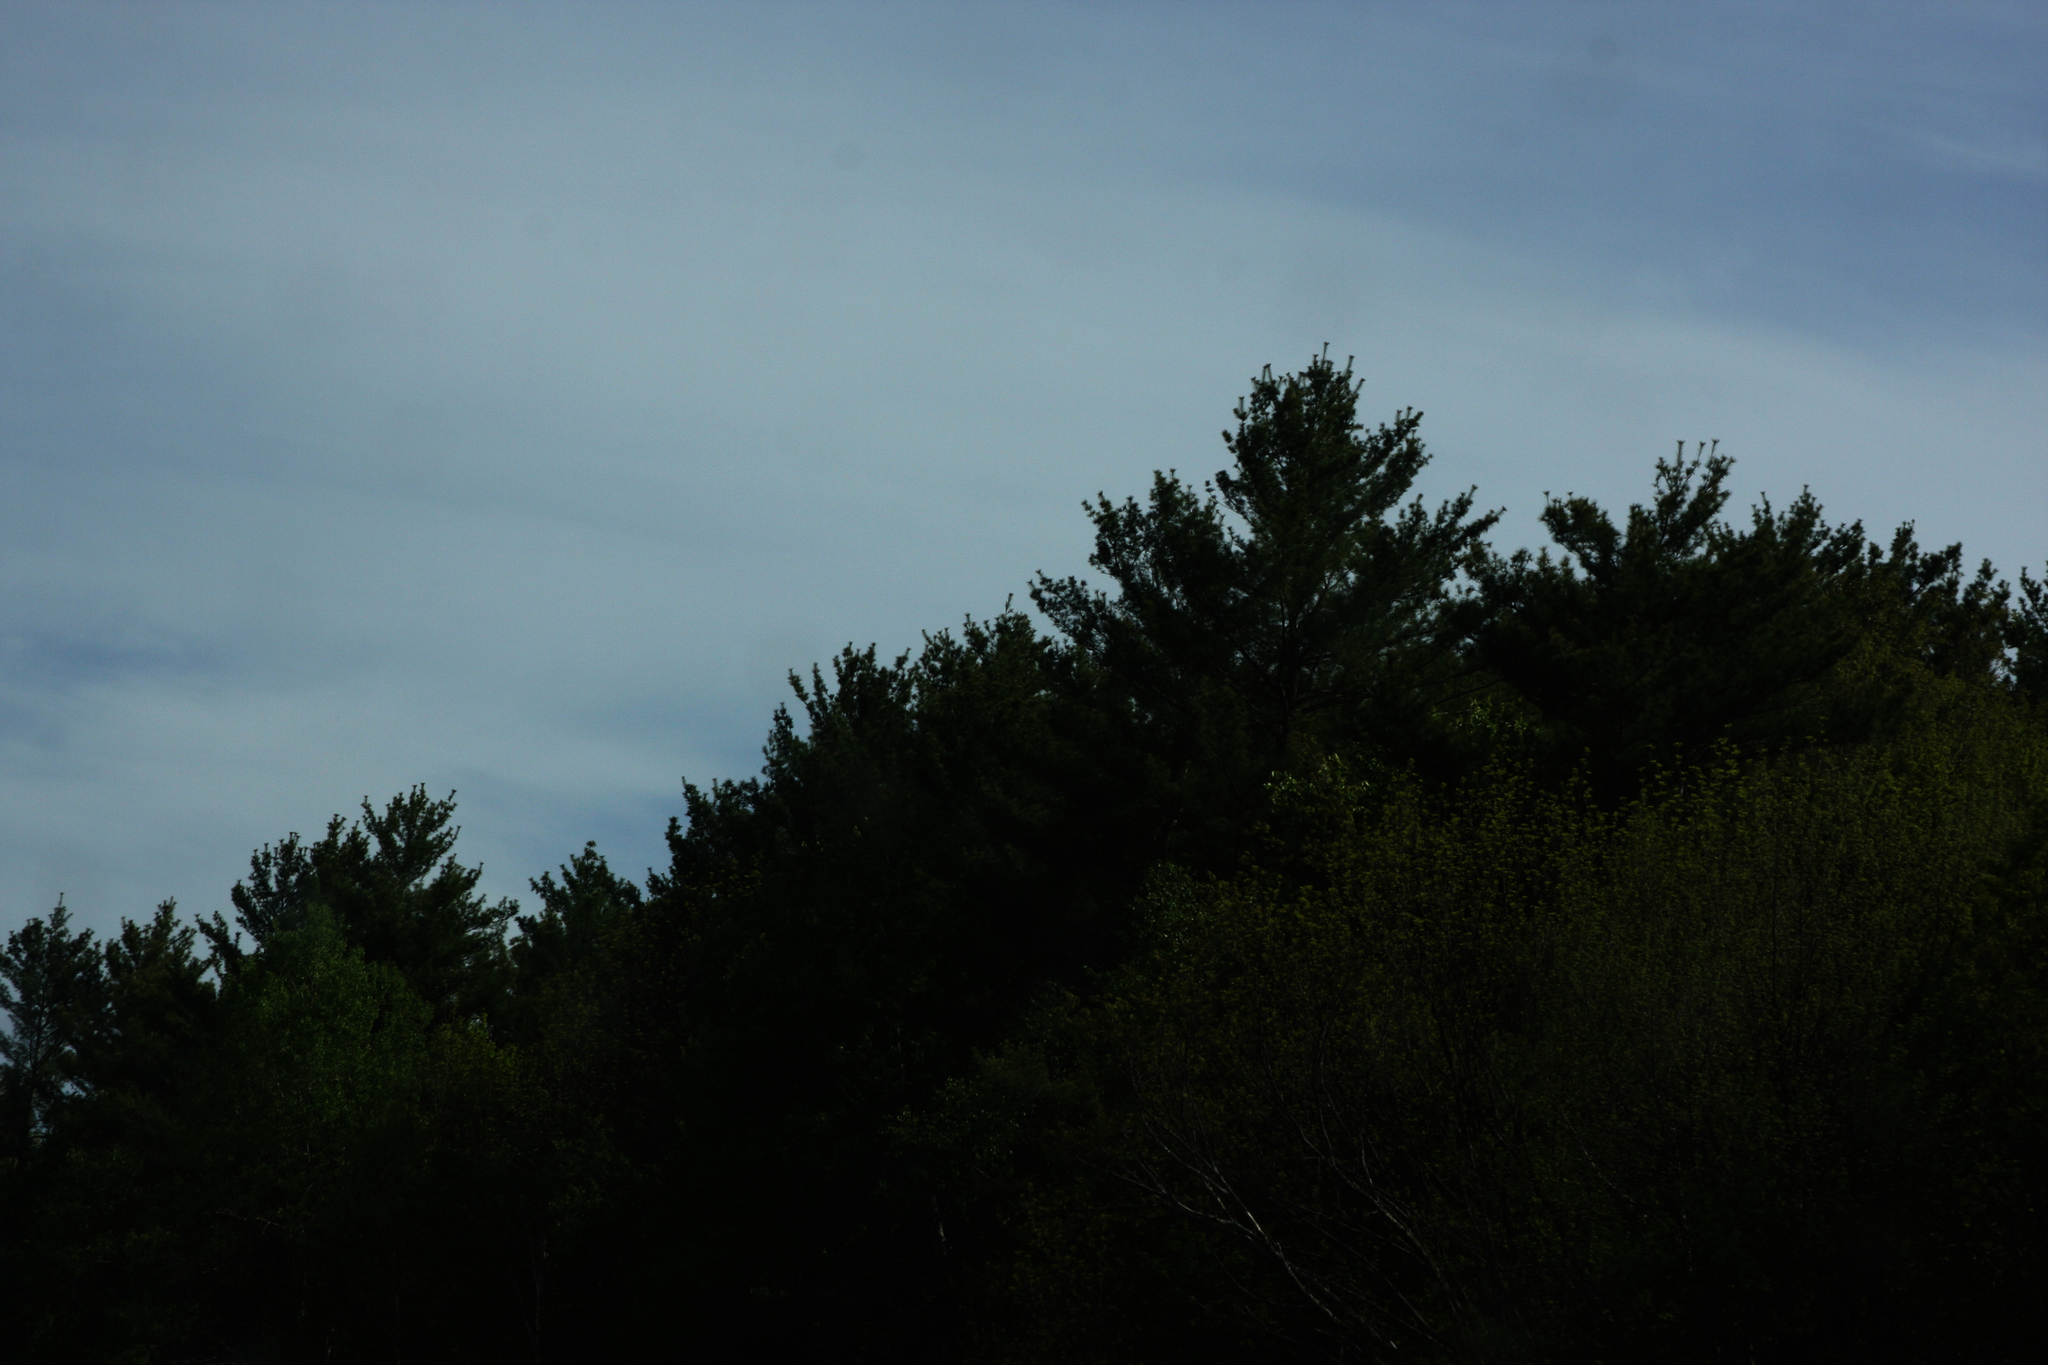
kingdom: Plantae
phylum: Tracheophyta
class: Pinopsida
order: Pinales
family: Pinaceae
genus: Pinus
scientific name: Pinus strobus
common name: Weymouth pine
